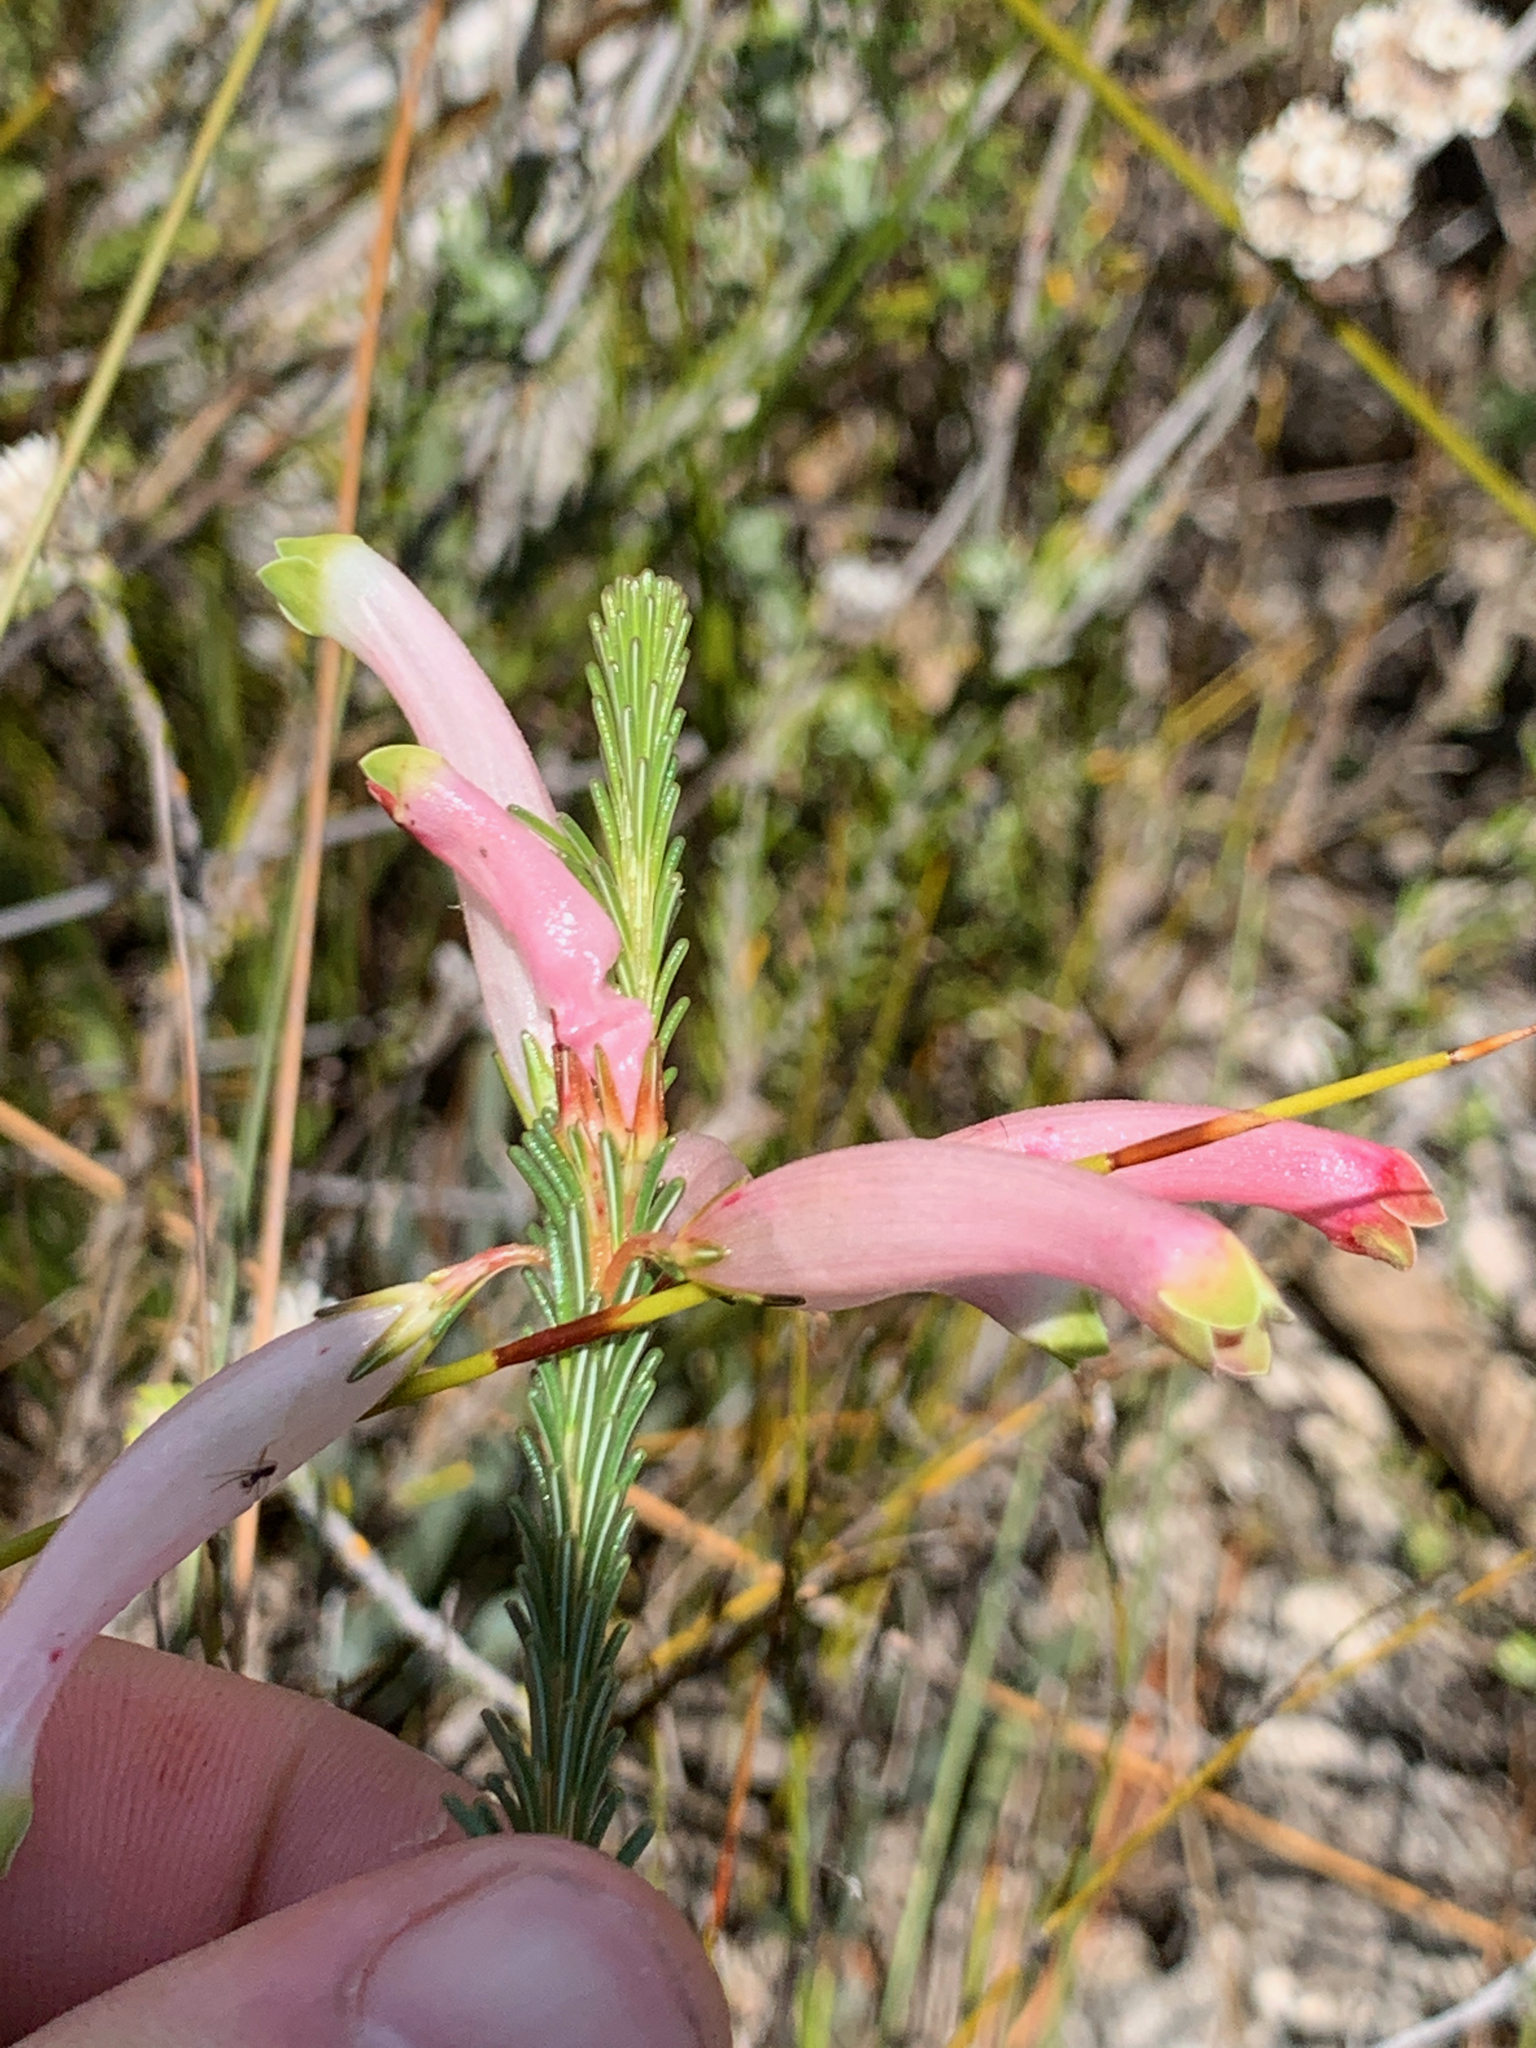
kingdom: Plantae
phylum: Tracheophyta
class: Magnoliopsida
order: Ericales
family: Ericaceae
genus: Erica
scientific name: Erica fascicularis
